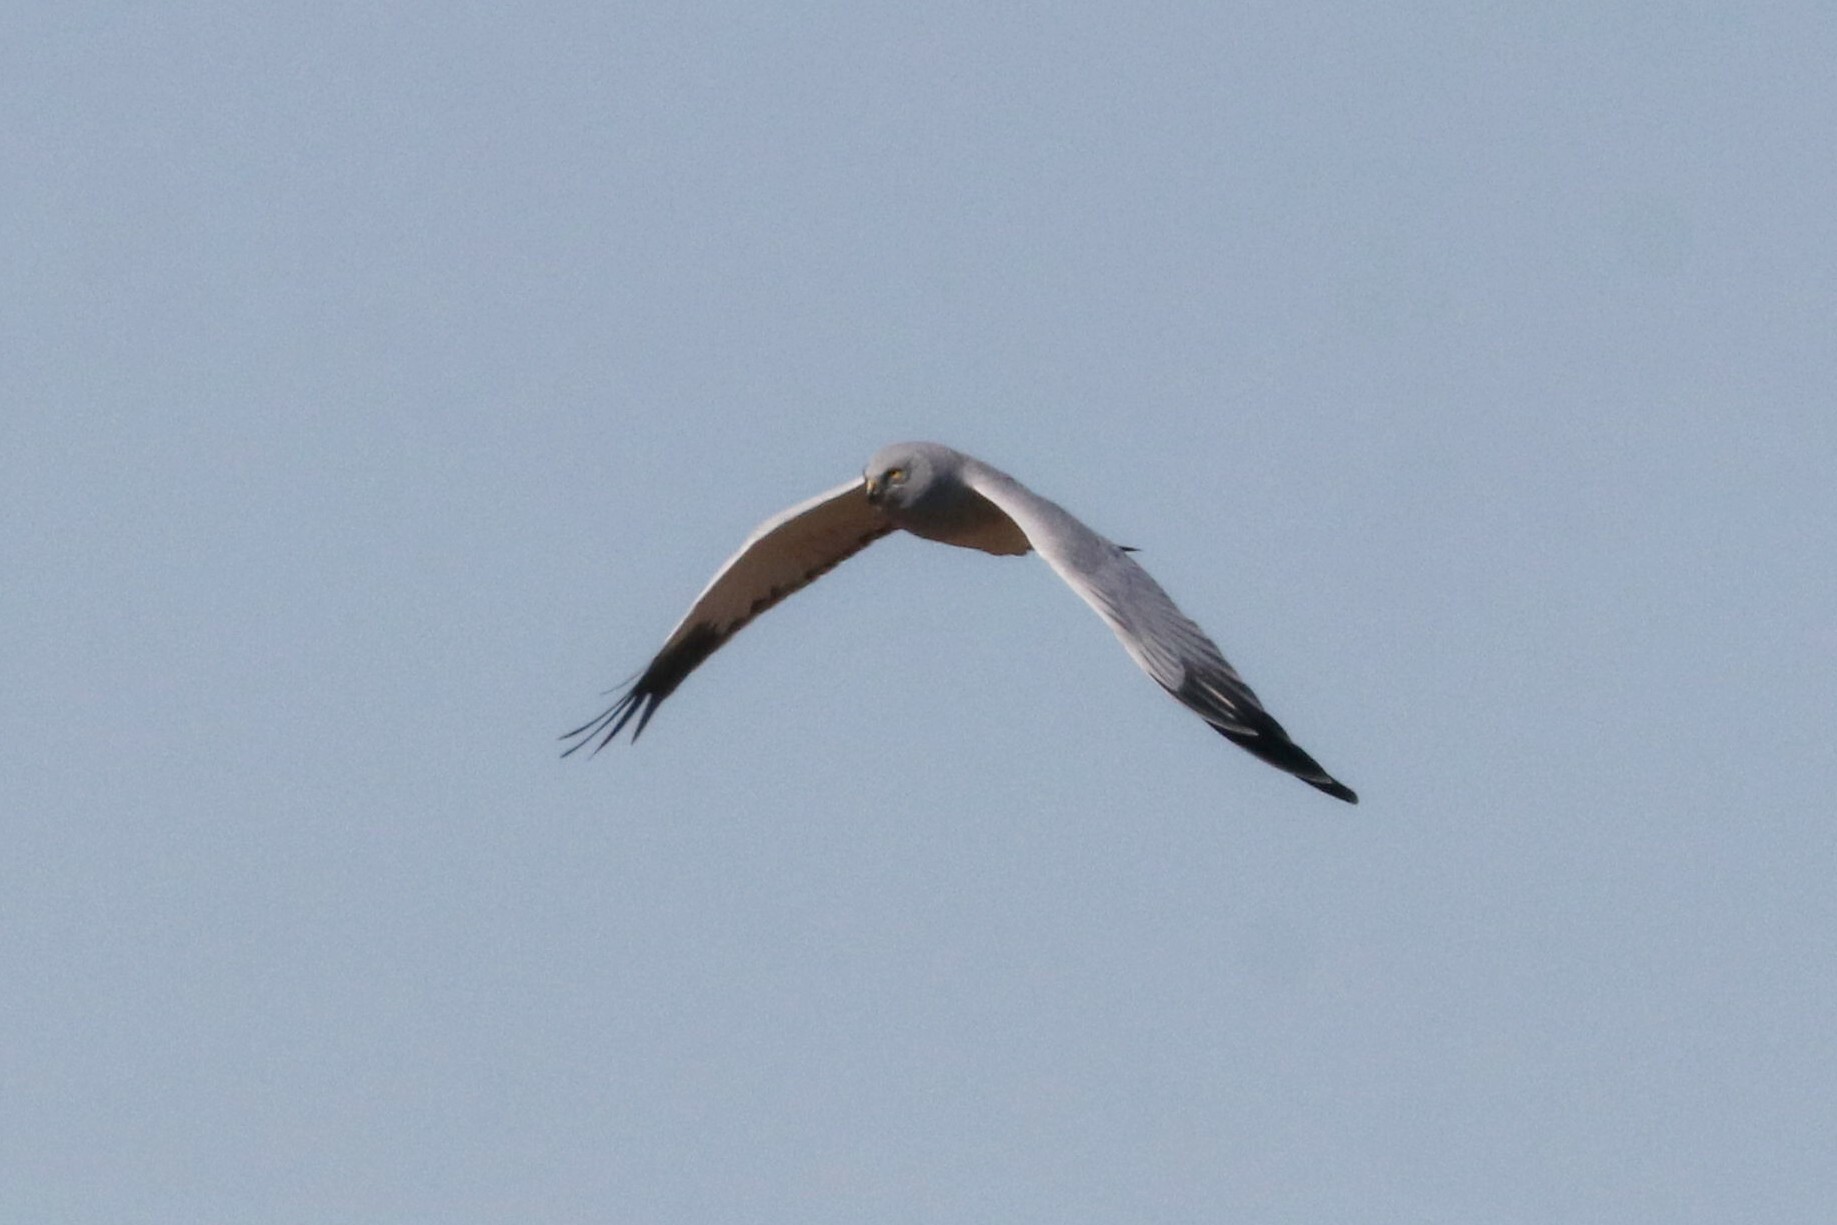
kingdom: Animalia
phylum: Chordata
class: Aves
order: Accipitriformes
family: Accipitridae
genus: Circus
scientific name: Circus cyaneus
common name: Hen harrier
